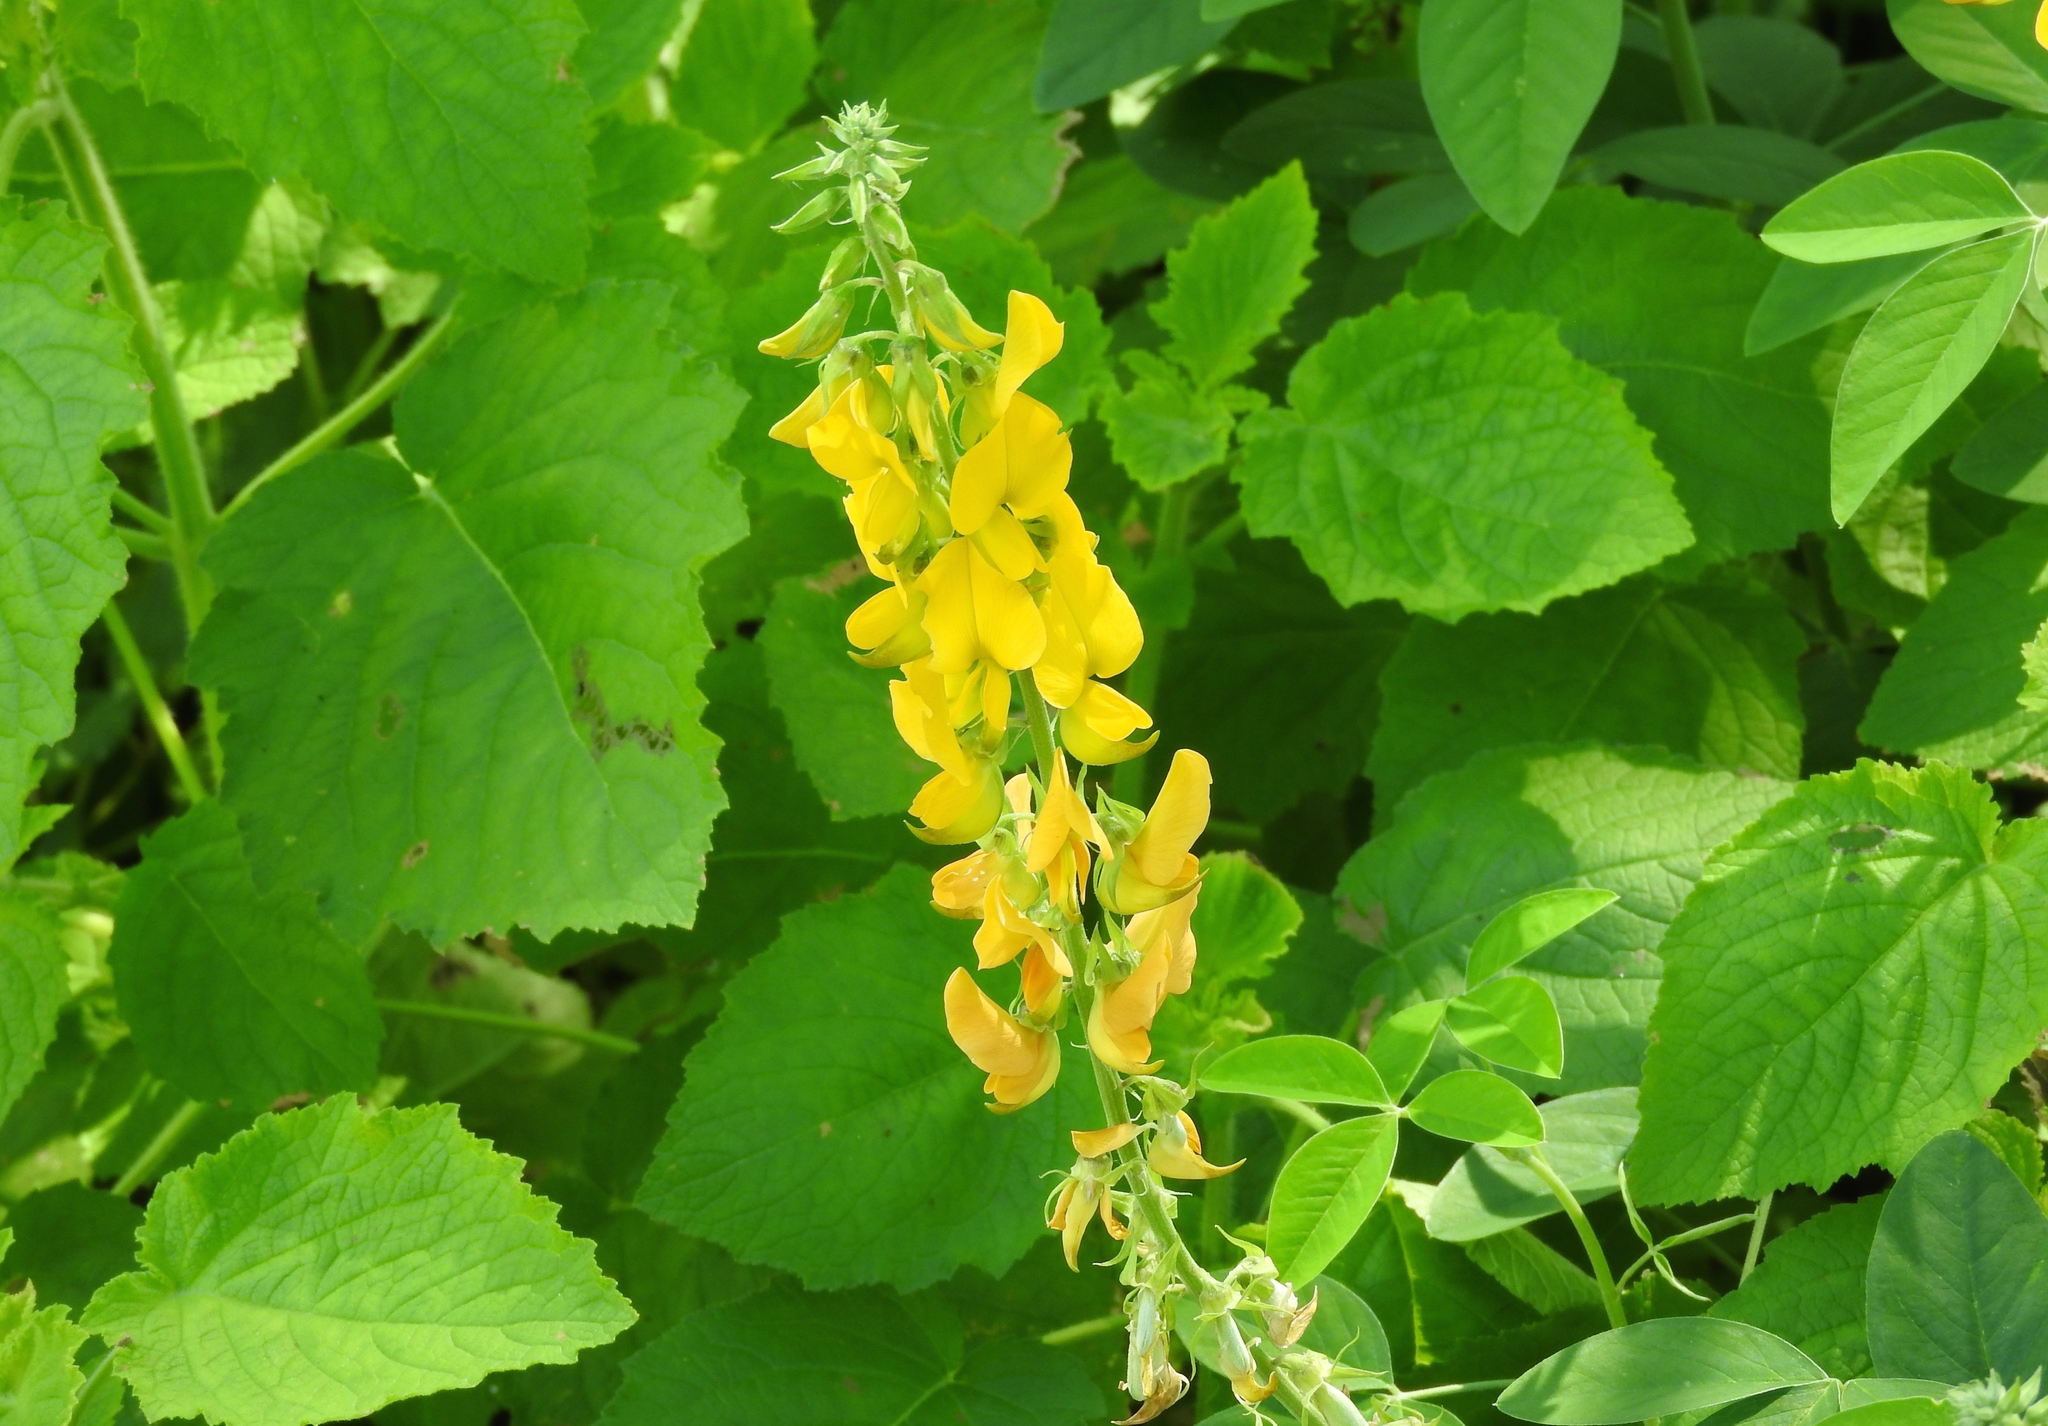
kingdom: Plantae
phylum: Tracheophyta
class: Magnoliopsida
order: Fabales
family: Fabaceae
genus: Crotalaria
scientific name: Crotalaria
